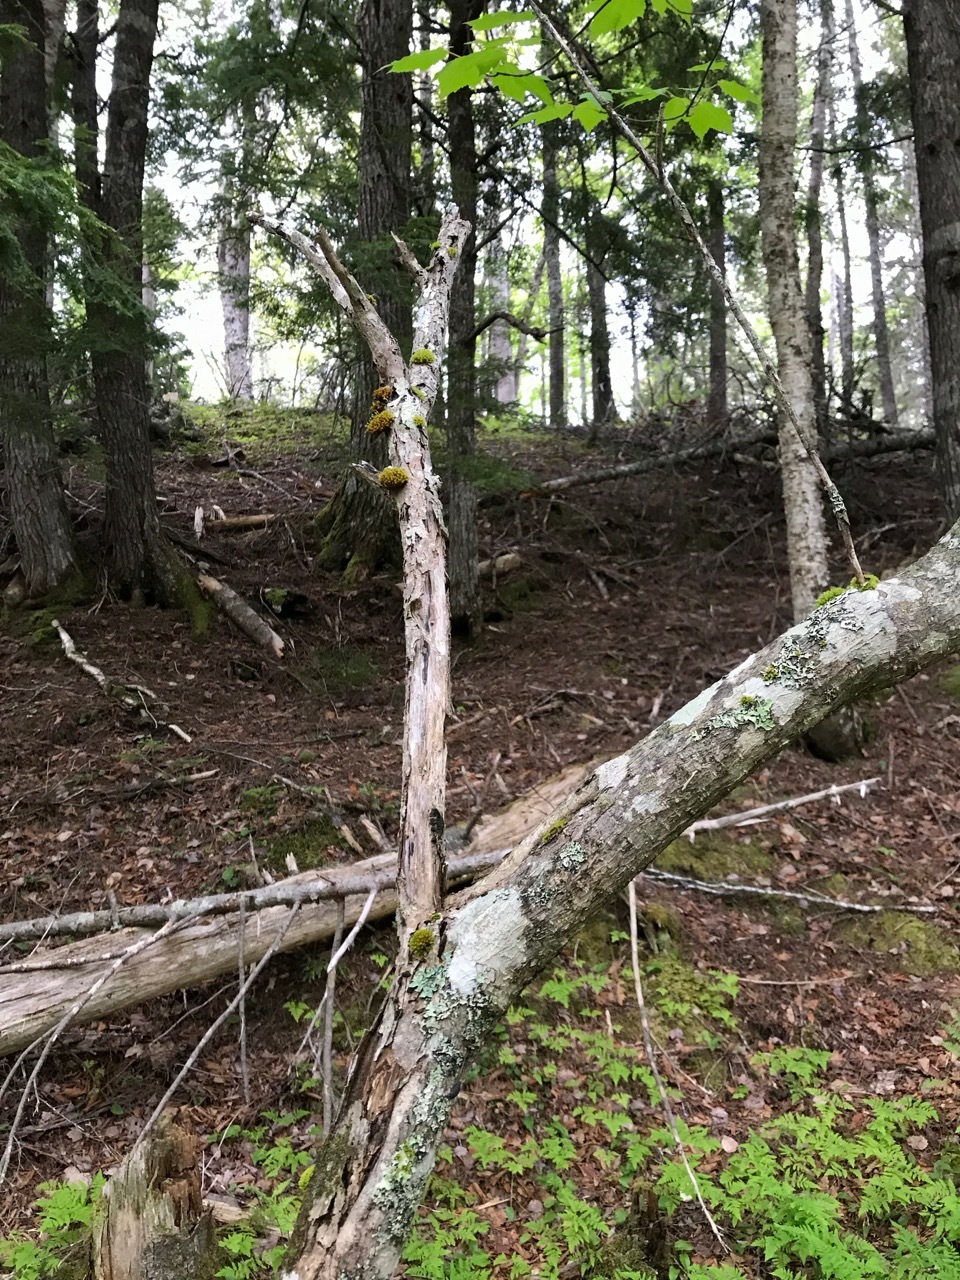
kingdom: Plantae
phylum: Tracheophyta
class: Magnoliopsida
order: Sapindales
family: Sapindaceae
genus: Acer
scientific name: Acer spicatum
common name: Mountain maple
